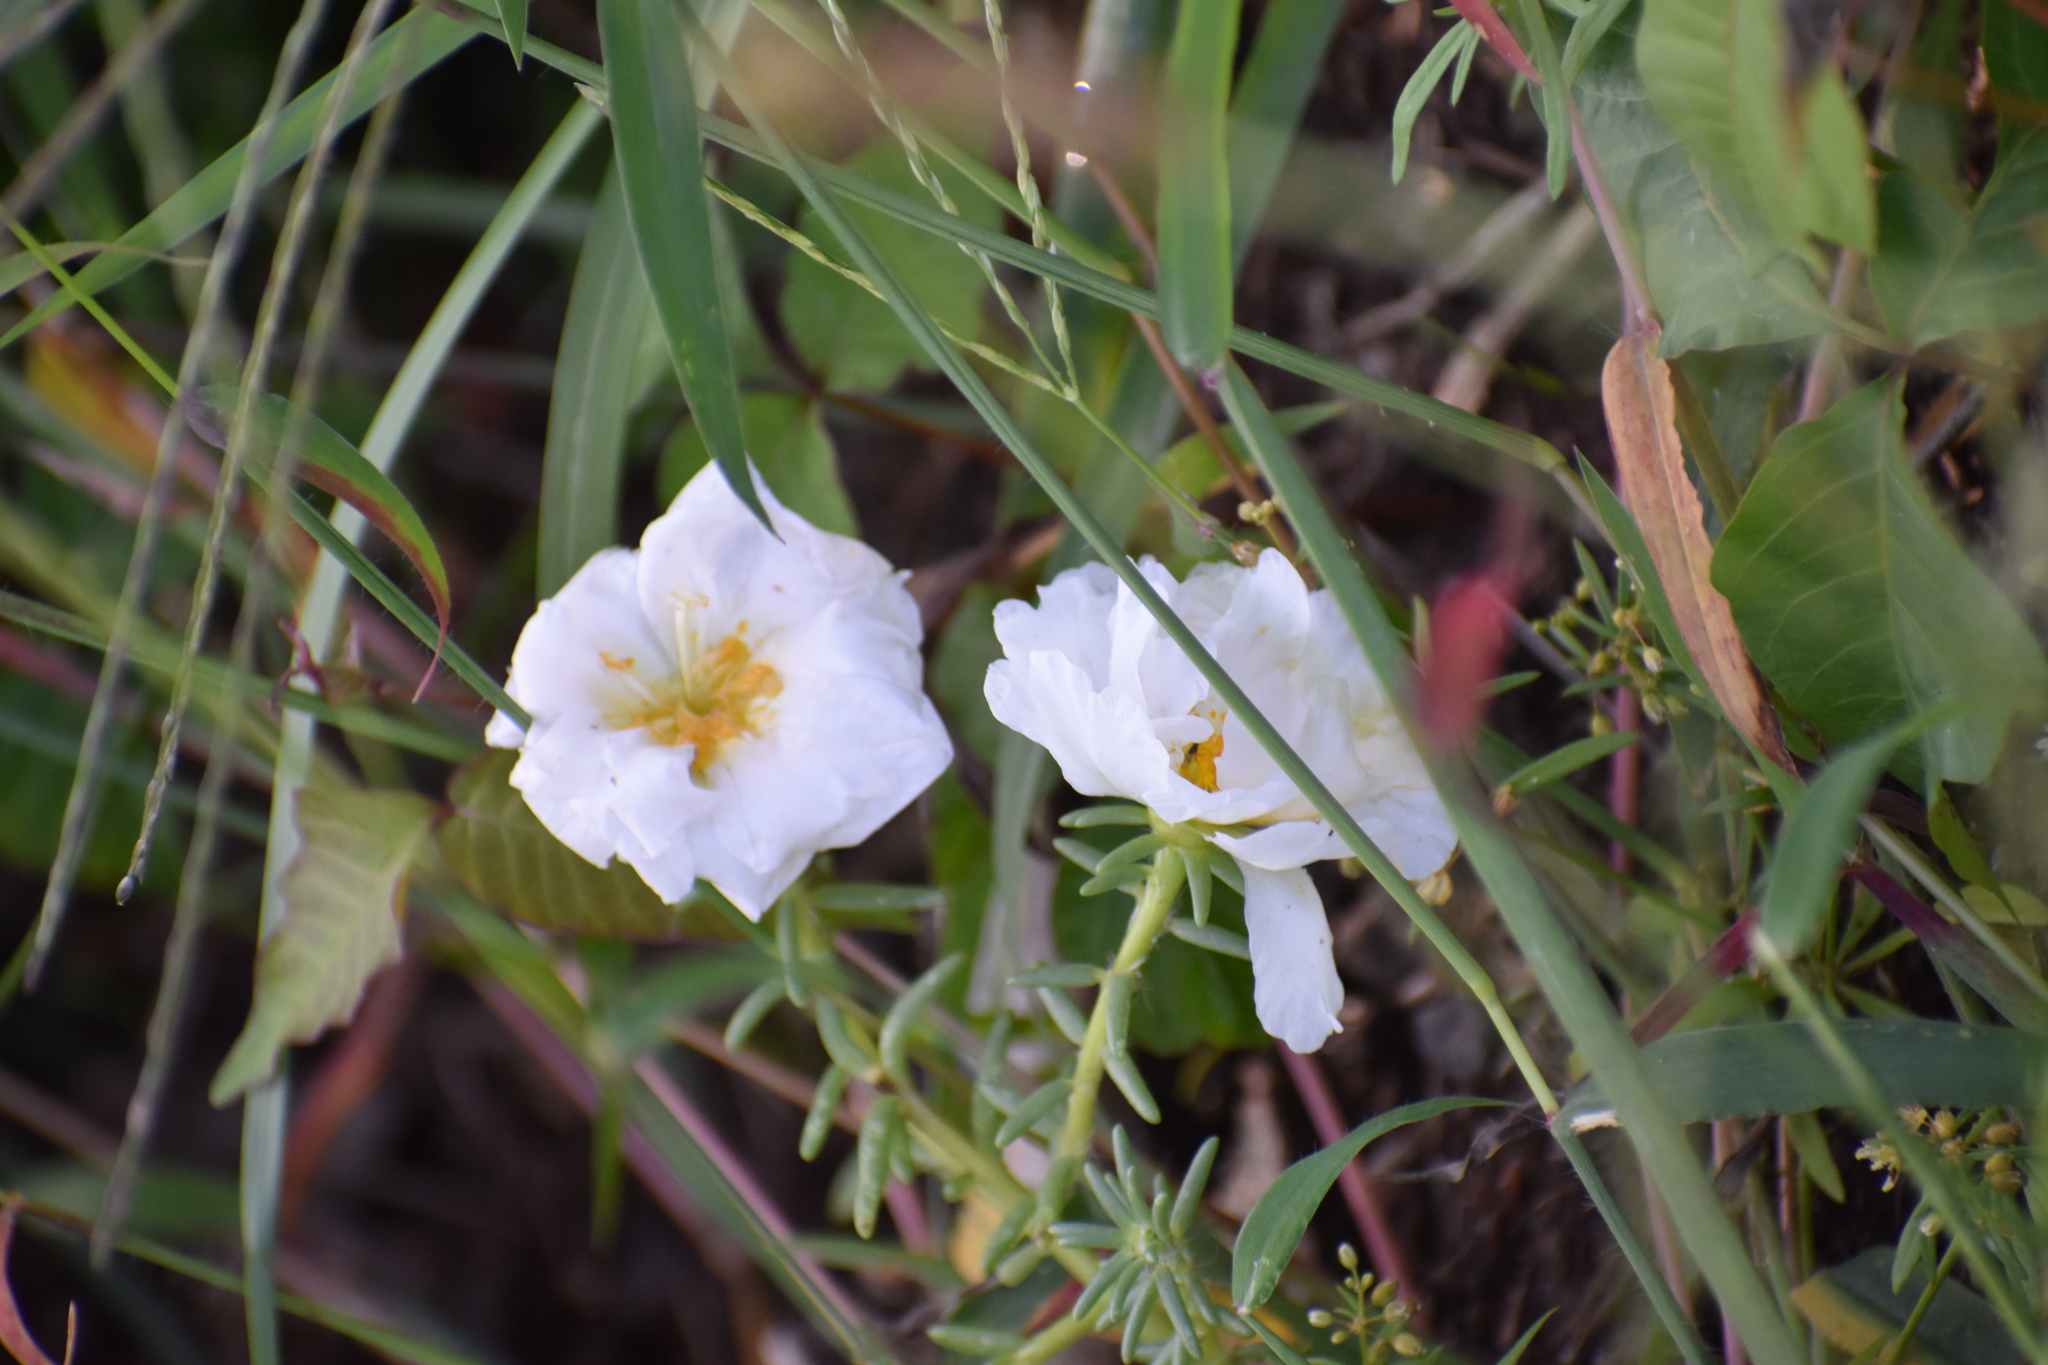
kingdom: Plantae
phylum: Tracheophyta
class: Magnoliopsida
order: Caryophyllales
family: Portulacaceae
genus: Portulaca
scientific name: Portulaca grandiflora
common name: Moss-rose
